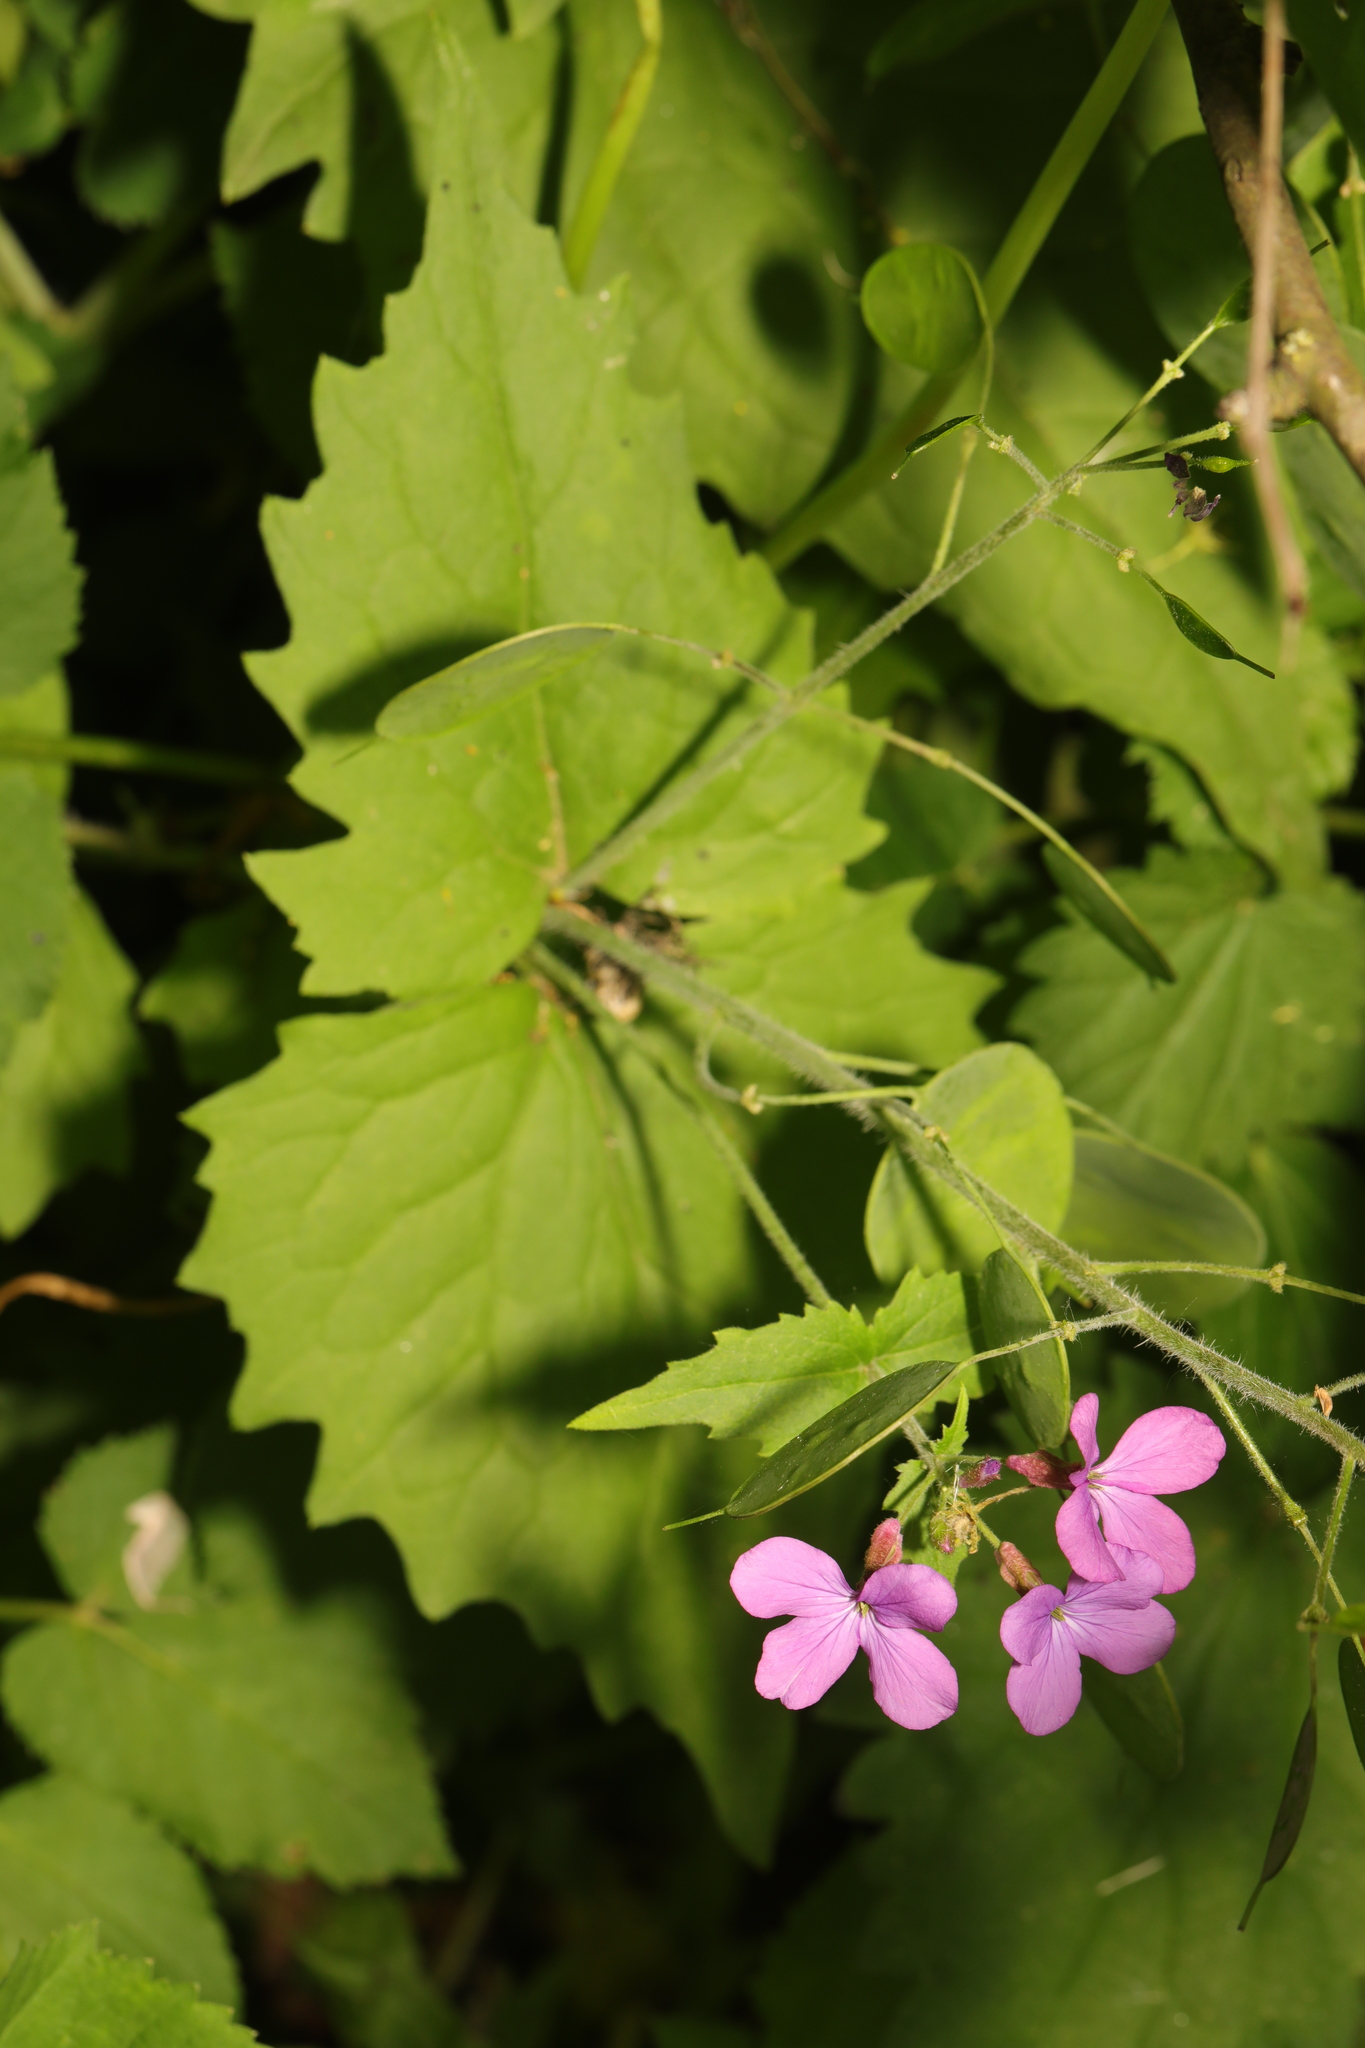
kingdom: Plantae
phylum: Tracheophyta
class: Magnoliopsida
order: Brassicales
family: Brassicaceae
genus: Lunaria
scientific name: Lunaria annua
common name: Honesty
